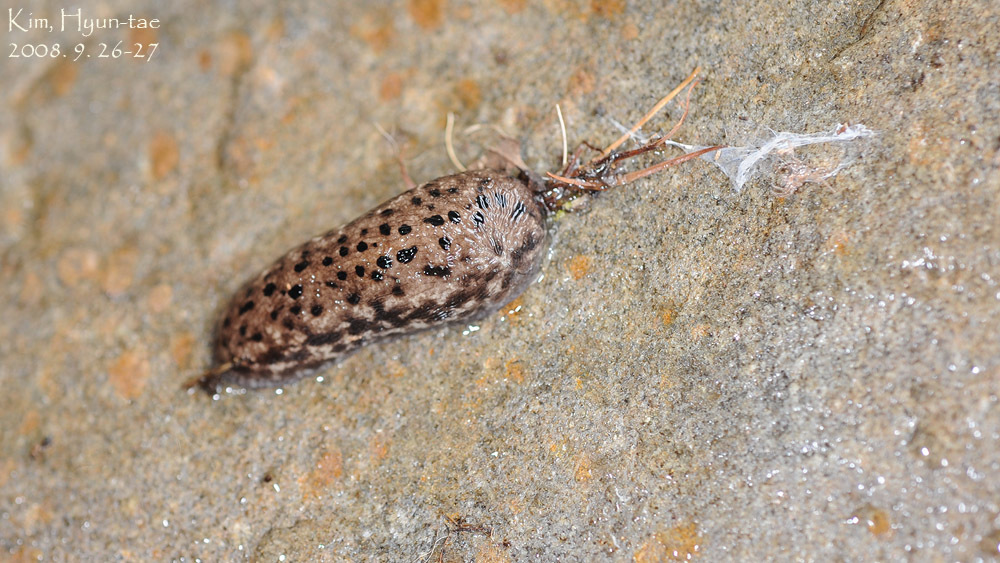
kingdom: Animalia
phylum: Mollusca
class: Gastropoda
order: Stylommatophora
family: Philomycidae
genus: Meghimatium
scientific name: Meghimatium fruhstorferi
